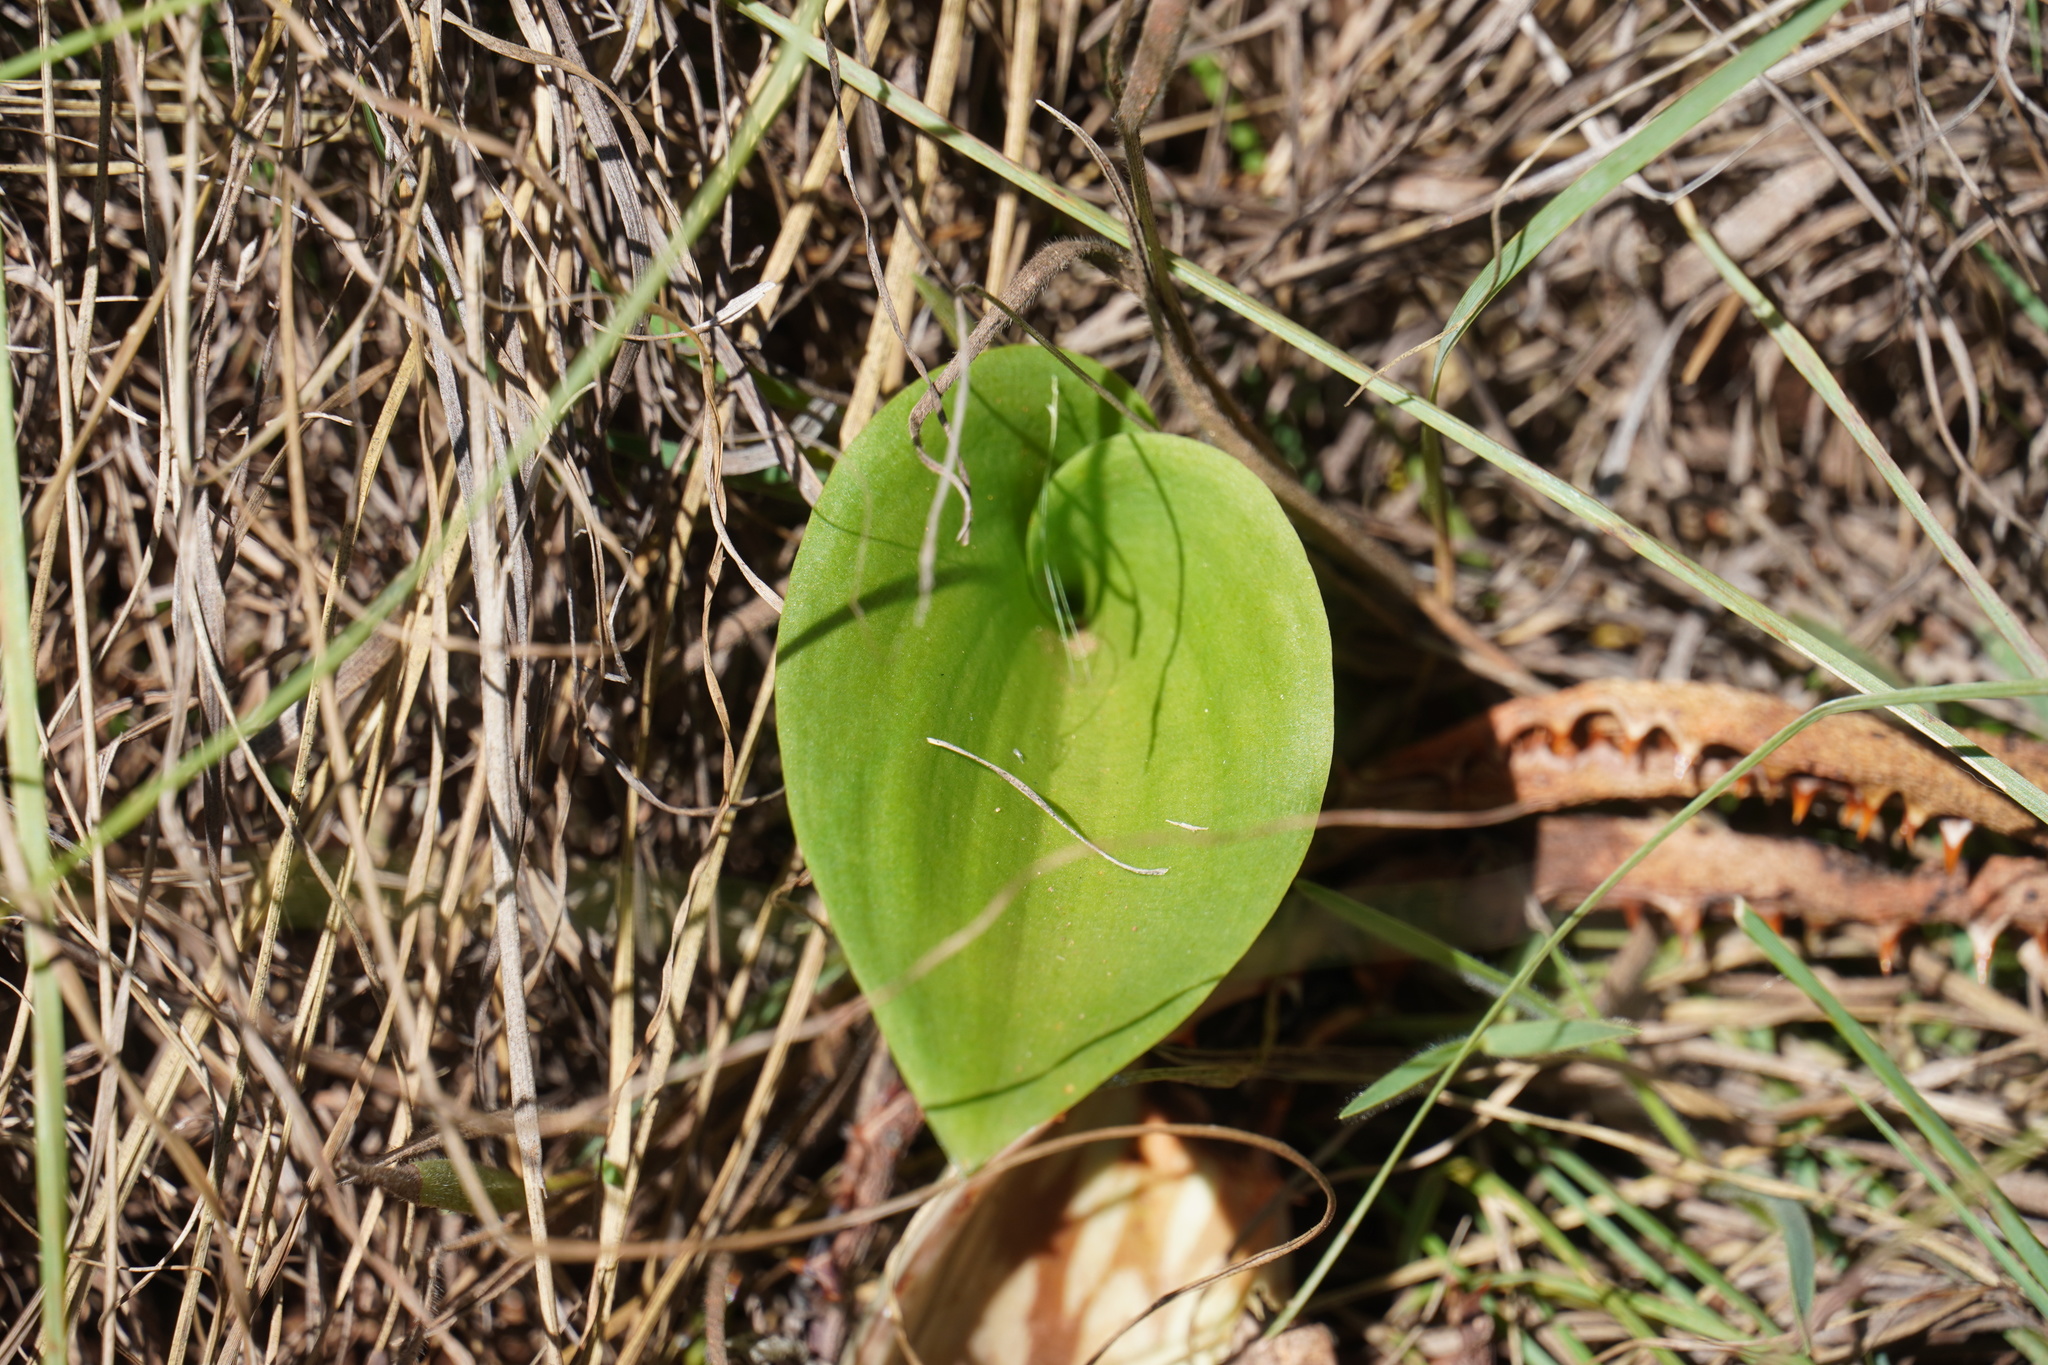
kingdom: Plantae
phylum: Tracheophyta
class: Liliopsida
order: Asparagales
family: Asparagaceae
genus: Eriospermum
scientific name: Eriospermum cooperi
